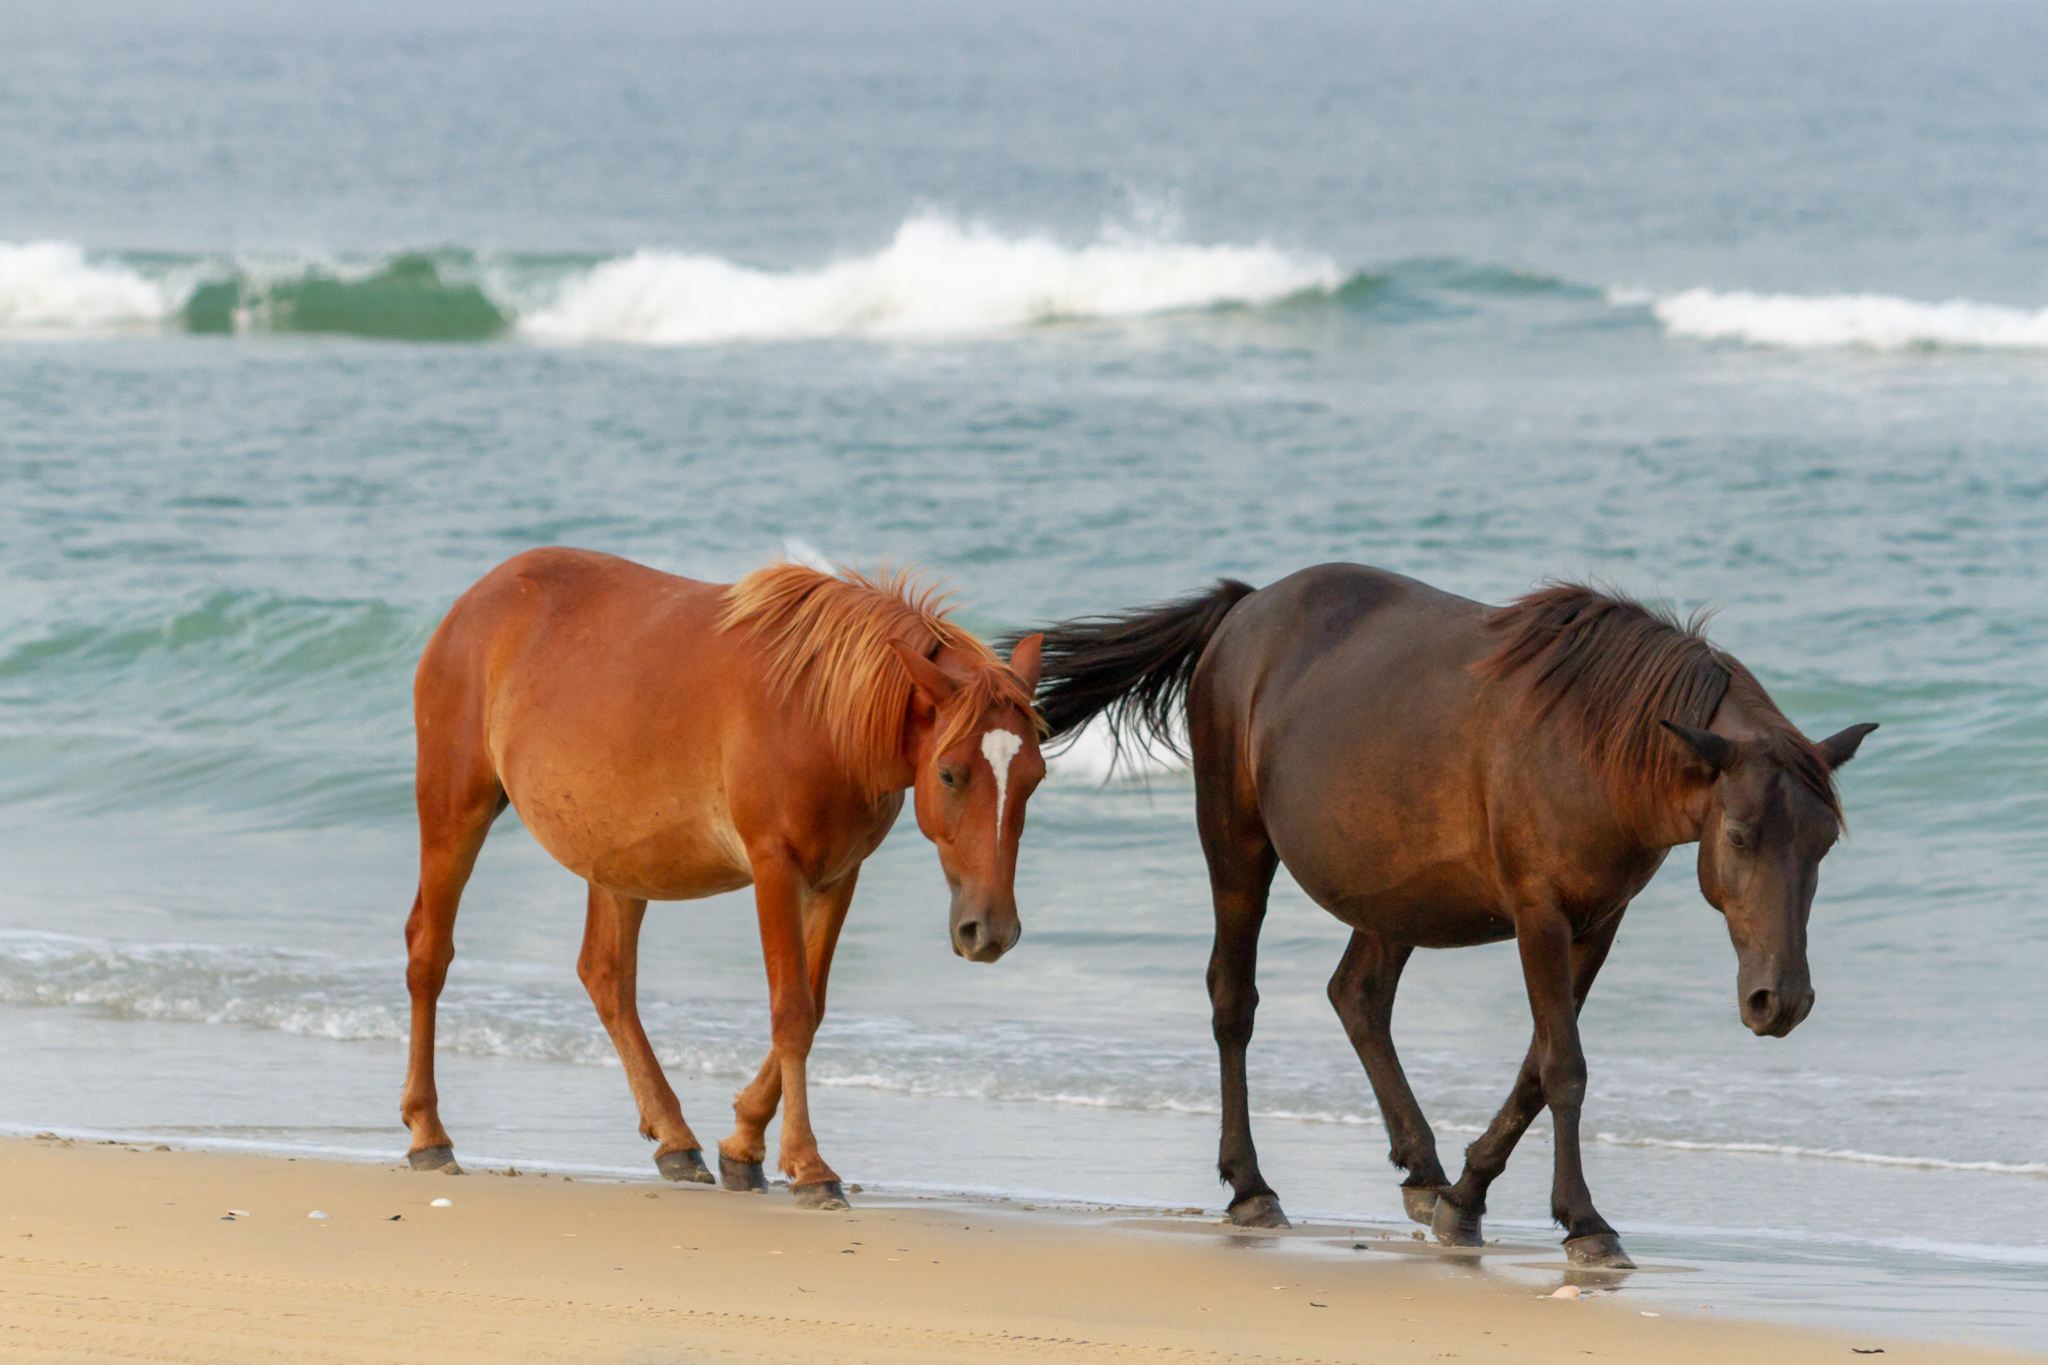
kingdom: Animalia
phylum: Chordata
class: Mammalia
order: Perissodactyla
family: Equidae
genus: Equus
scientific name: Equus caballus
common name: Horse
